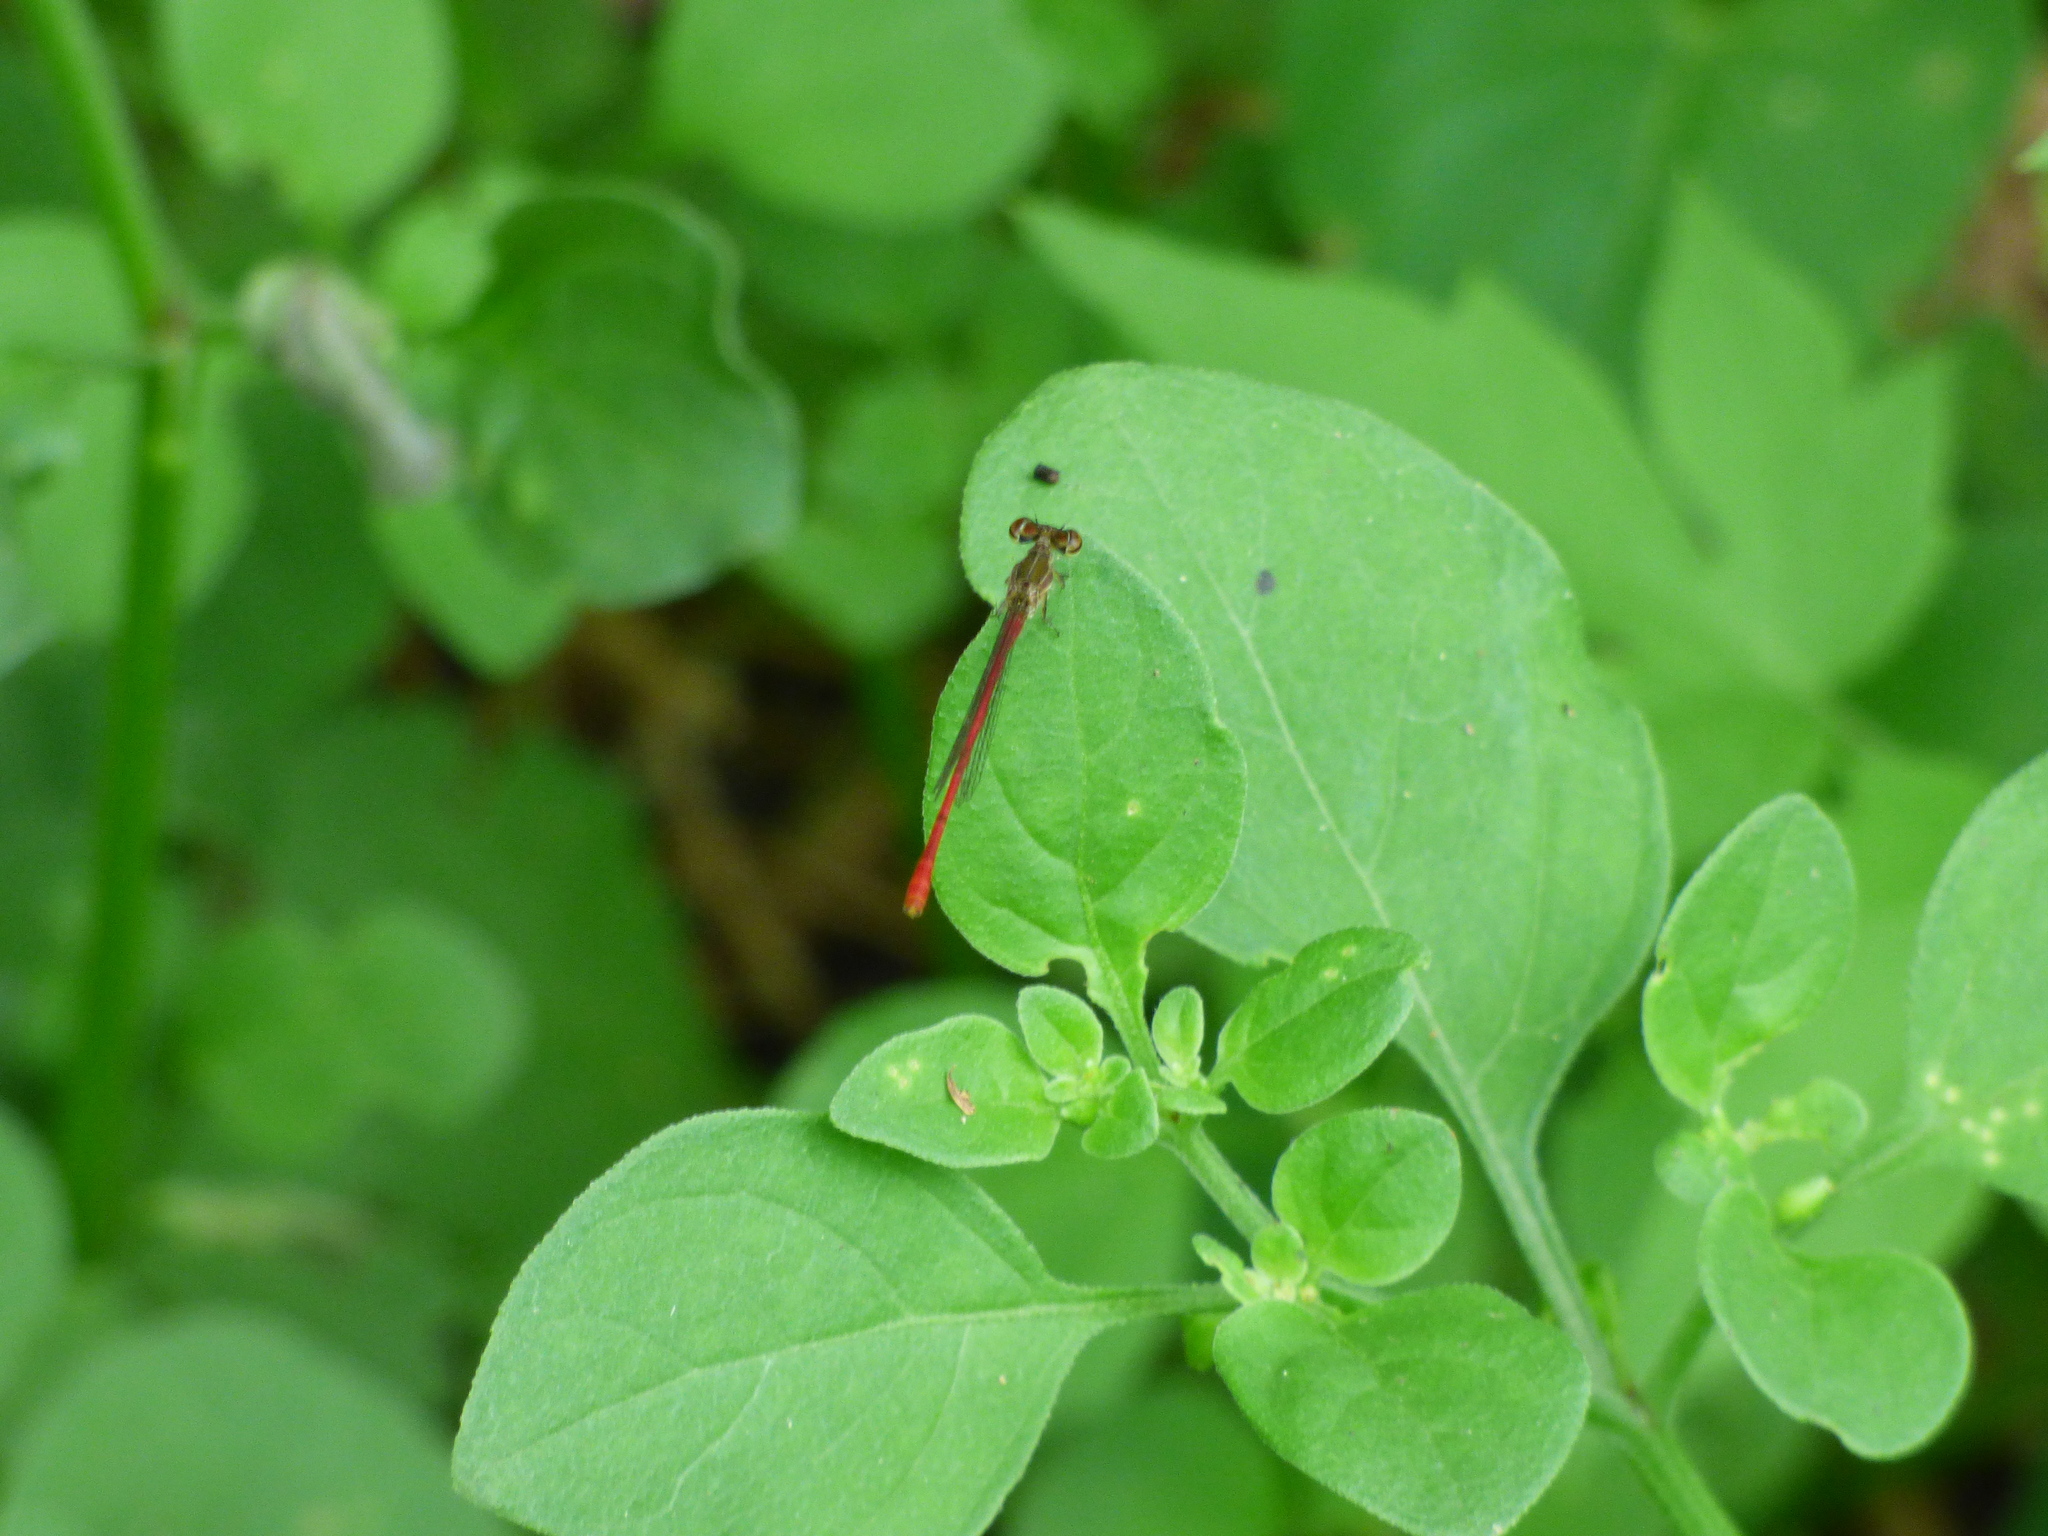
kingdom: Animalia
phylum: Arthropoda
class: Insecta
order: Odonata
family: Coenagrionidae
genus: Telebasis
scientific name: Telebasis willinki
